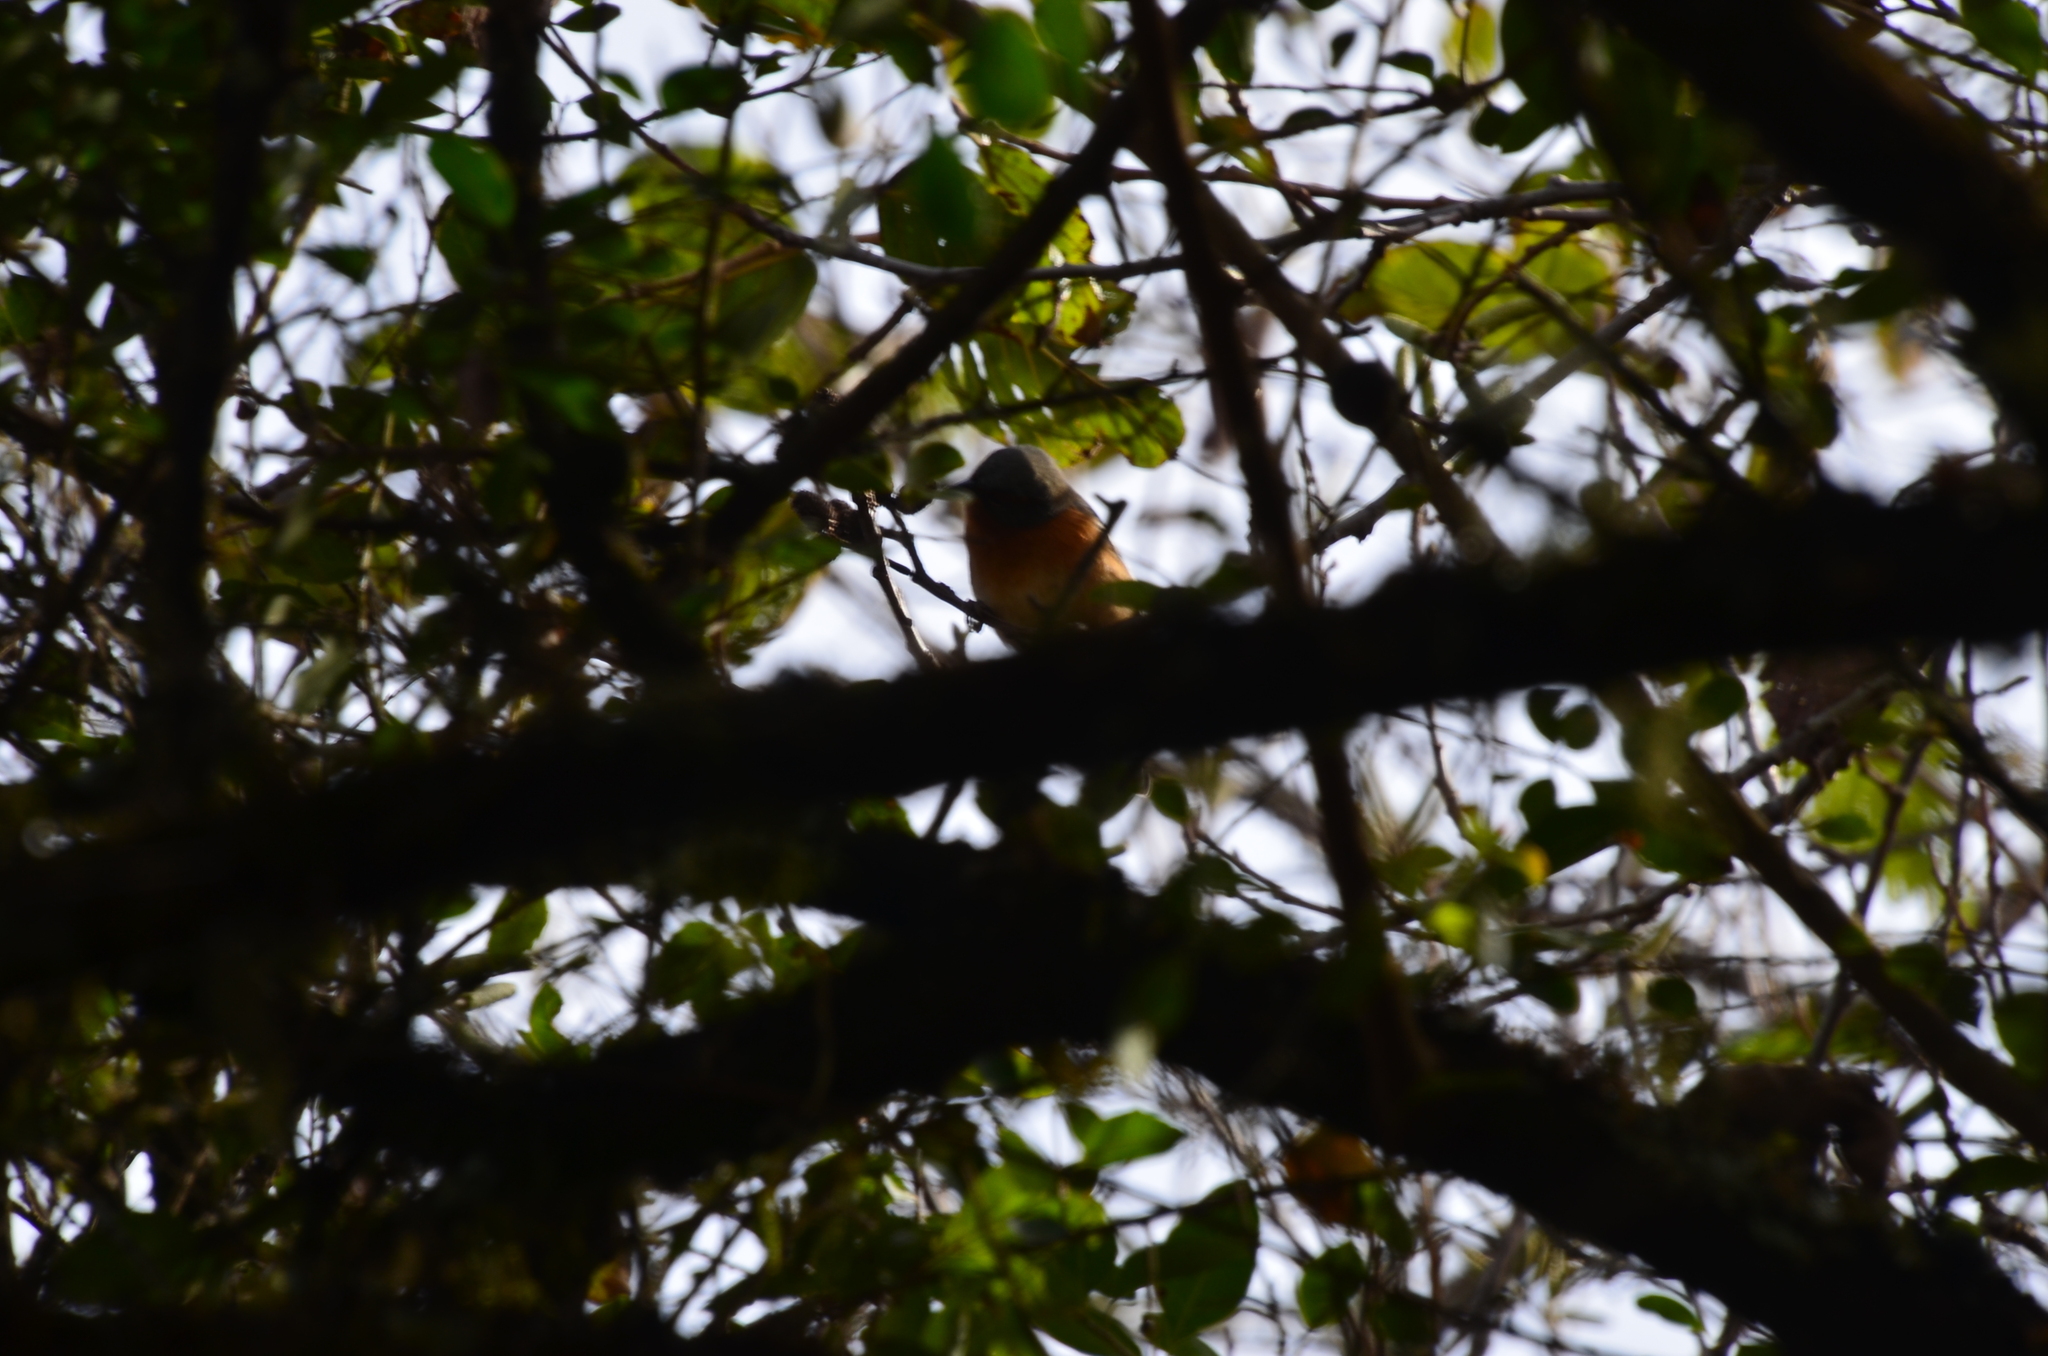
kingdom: Animalia
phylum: Chordata
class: Aves
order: Passeriformes
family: Thraupidae
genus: Microspingus
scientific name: Microspingus erythrophrys
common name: Rusty-browed warbling-finch
